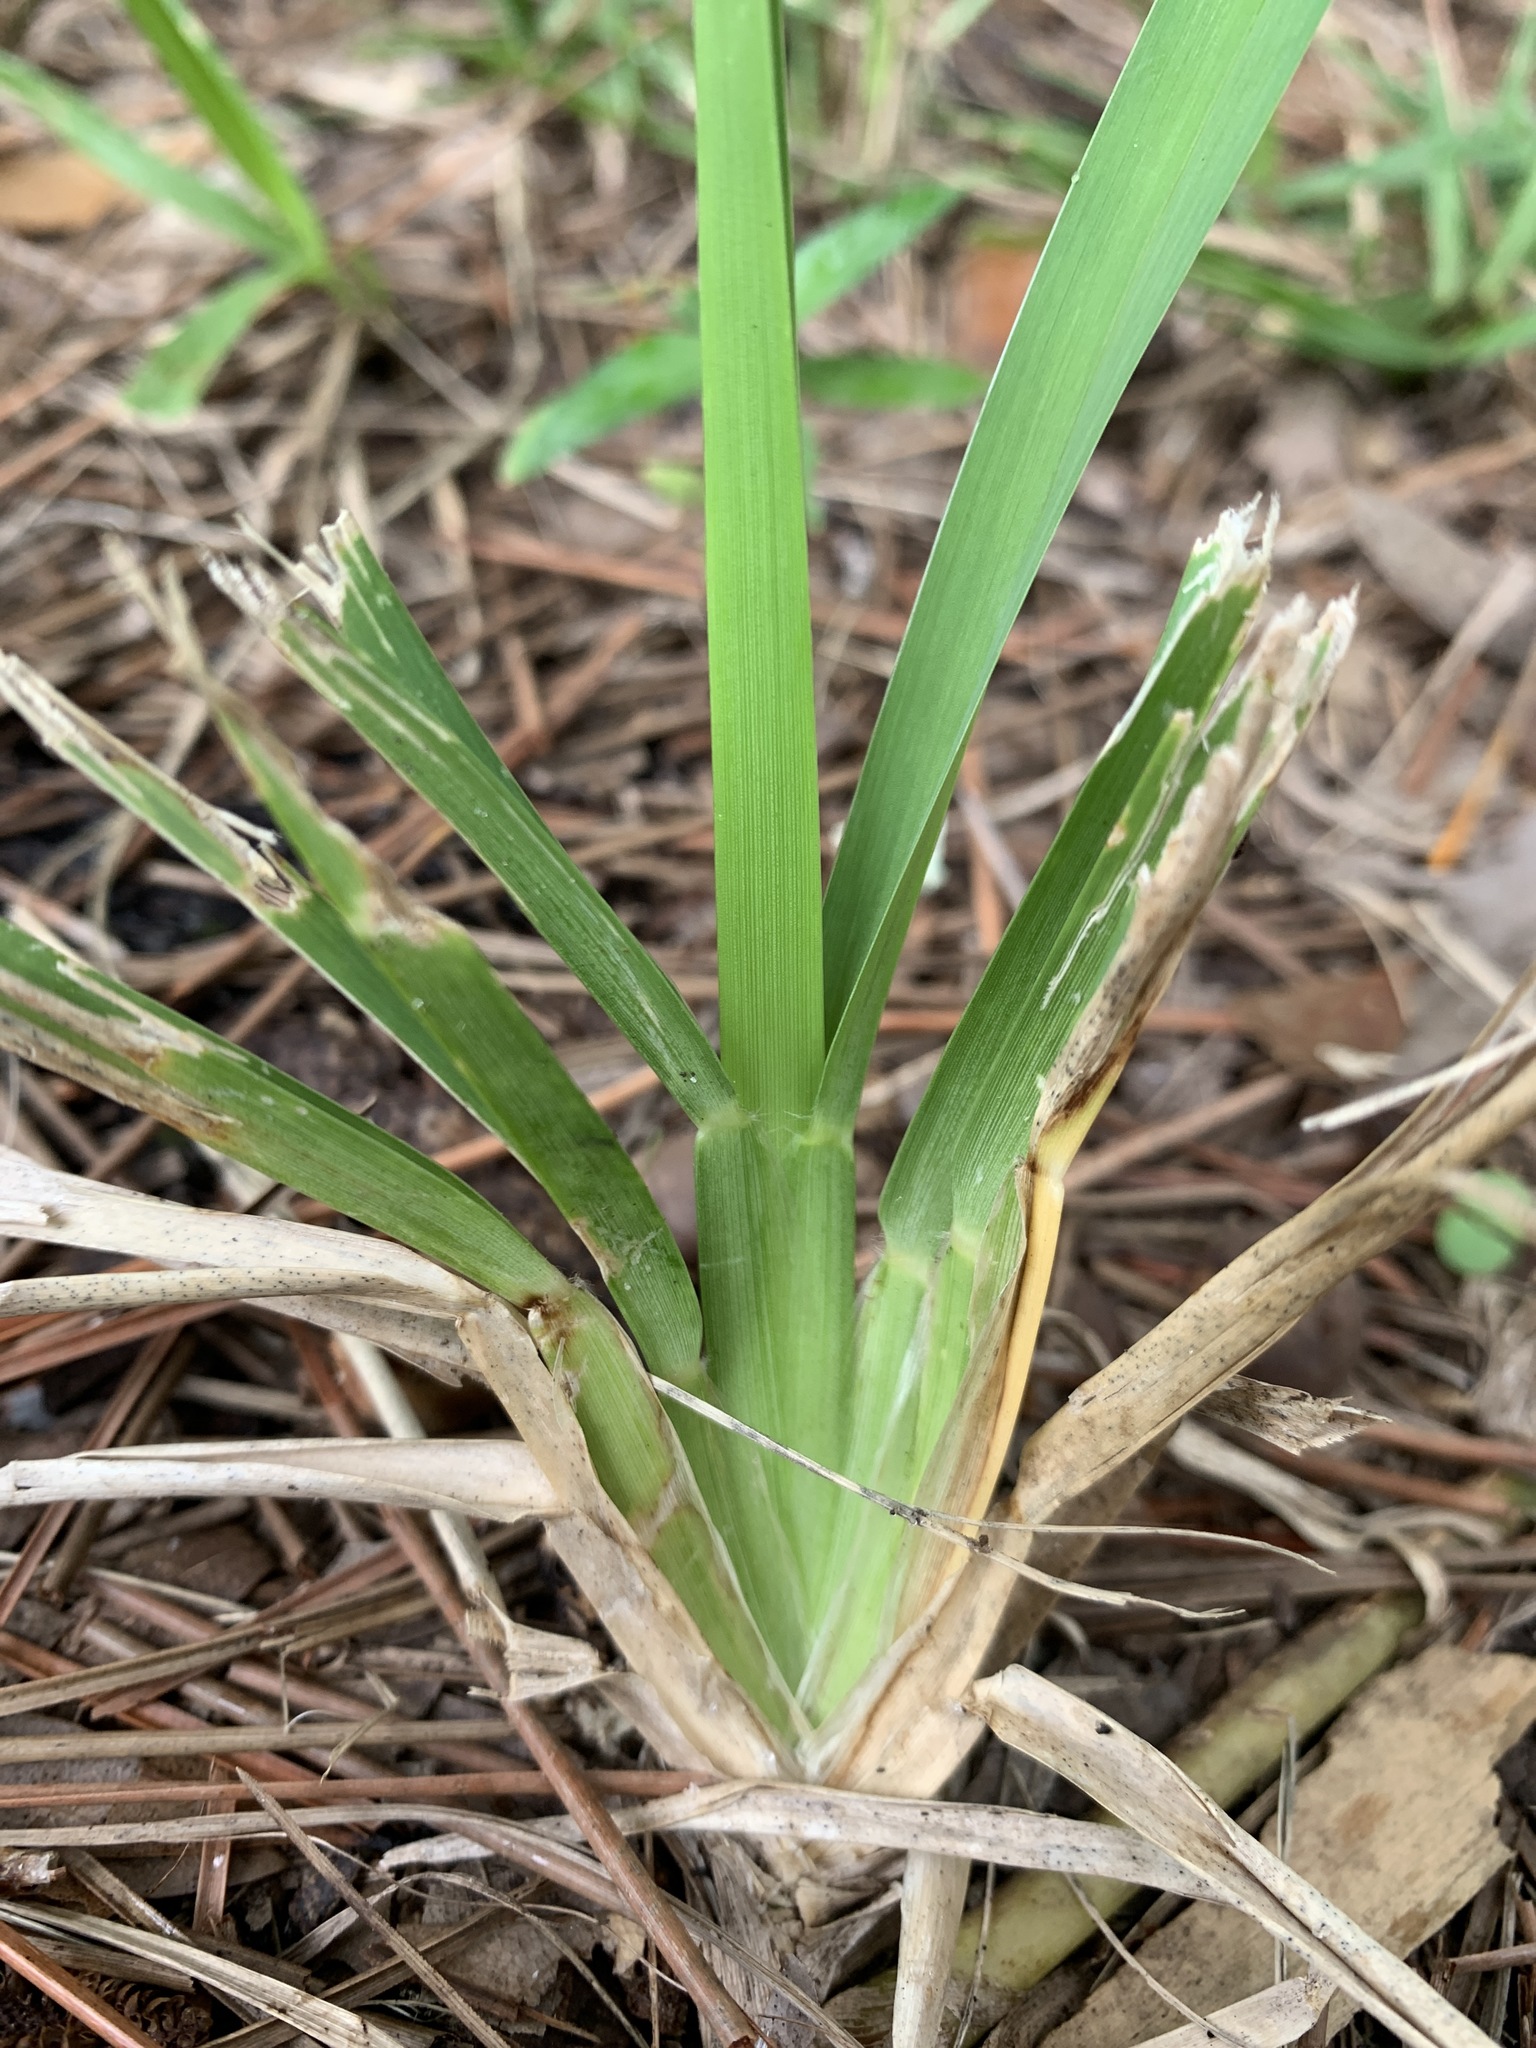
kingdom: Plantae
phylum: Tracheophyta
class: Liliopsida
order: Poales
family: Poaceae
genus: Stenotaphrum
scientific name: Stenotaphrum secundatum
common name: St. augustine grass
